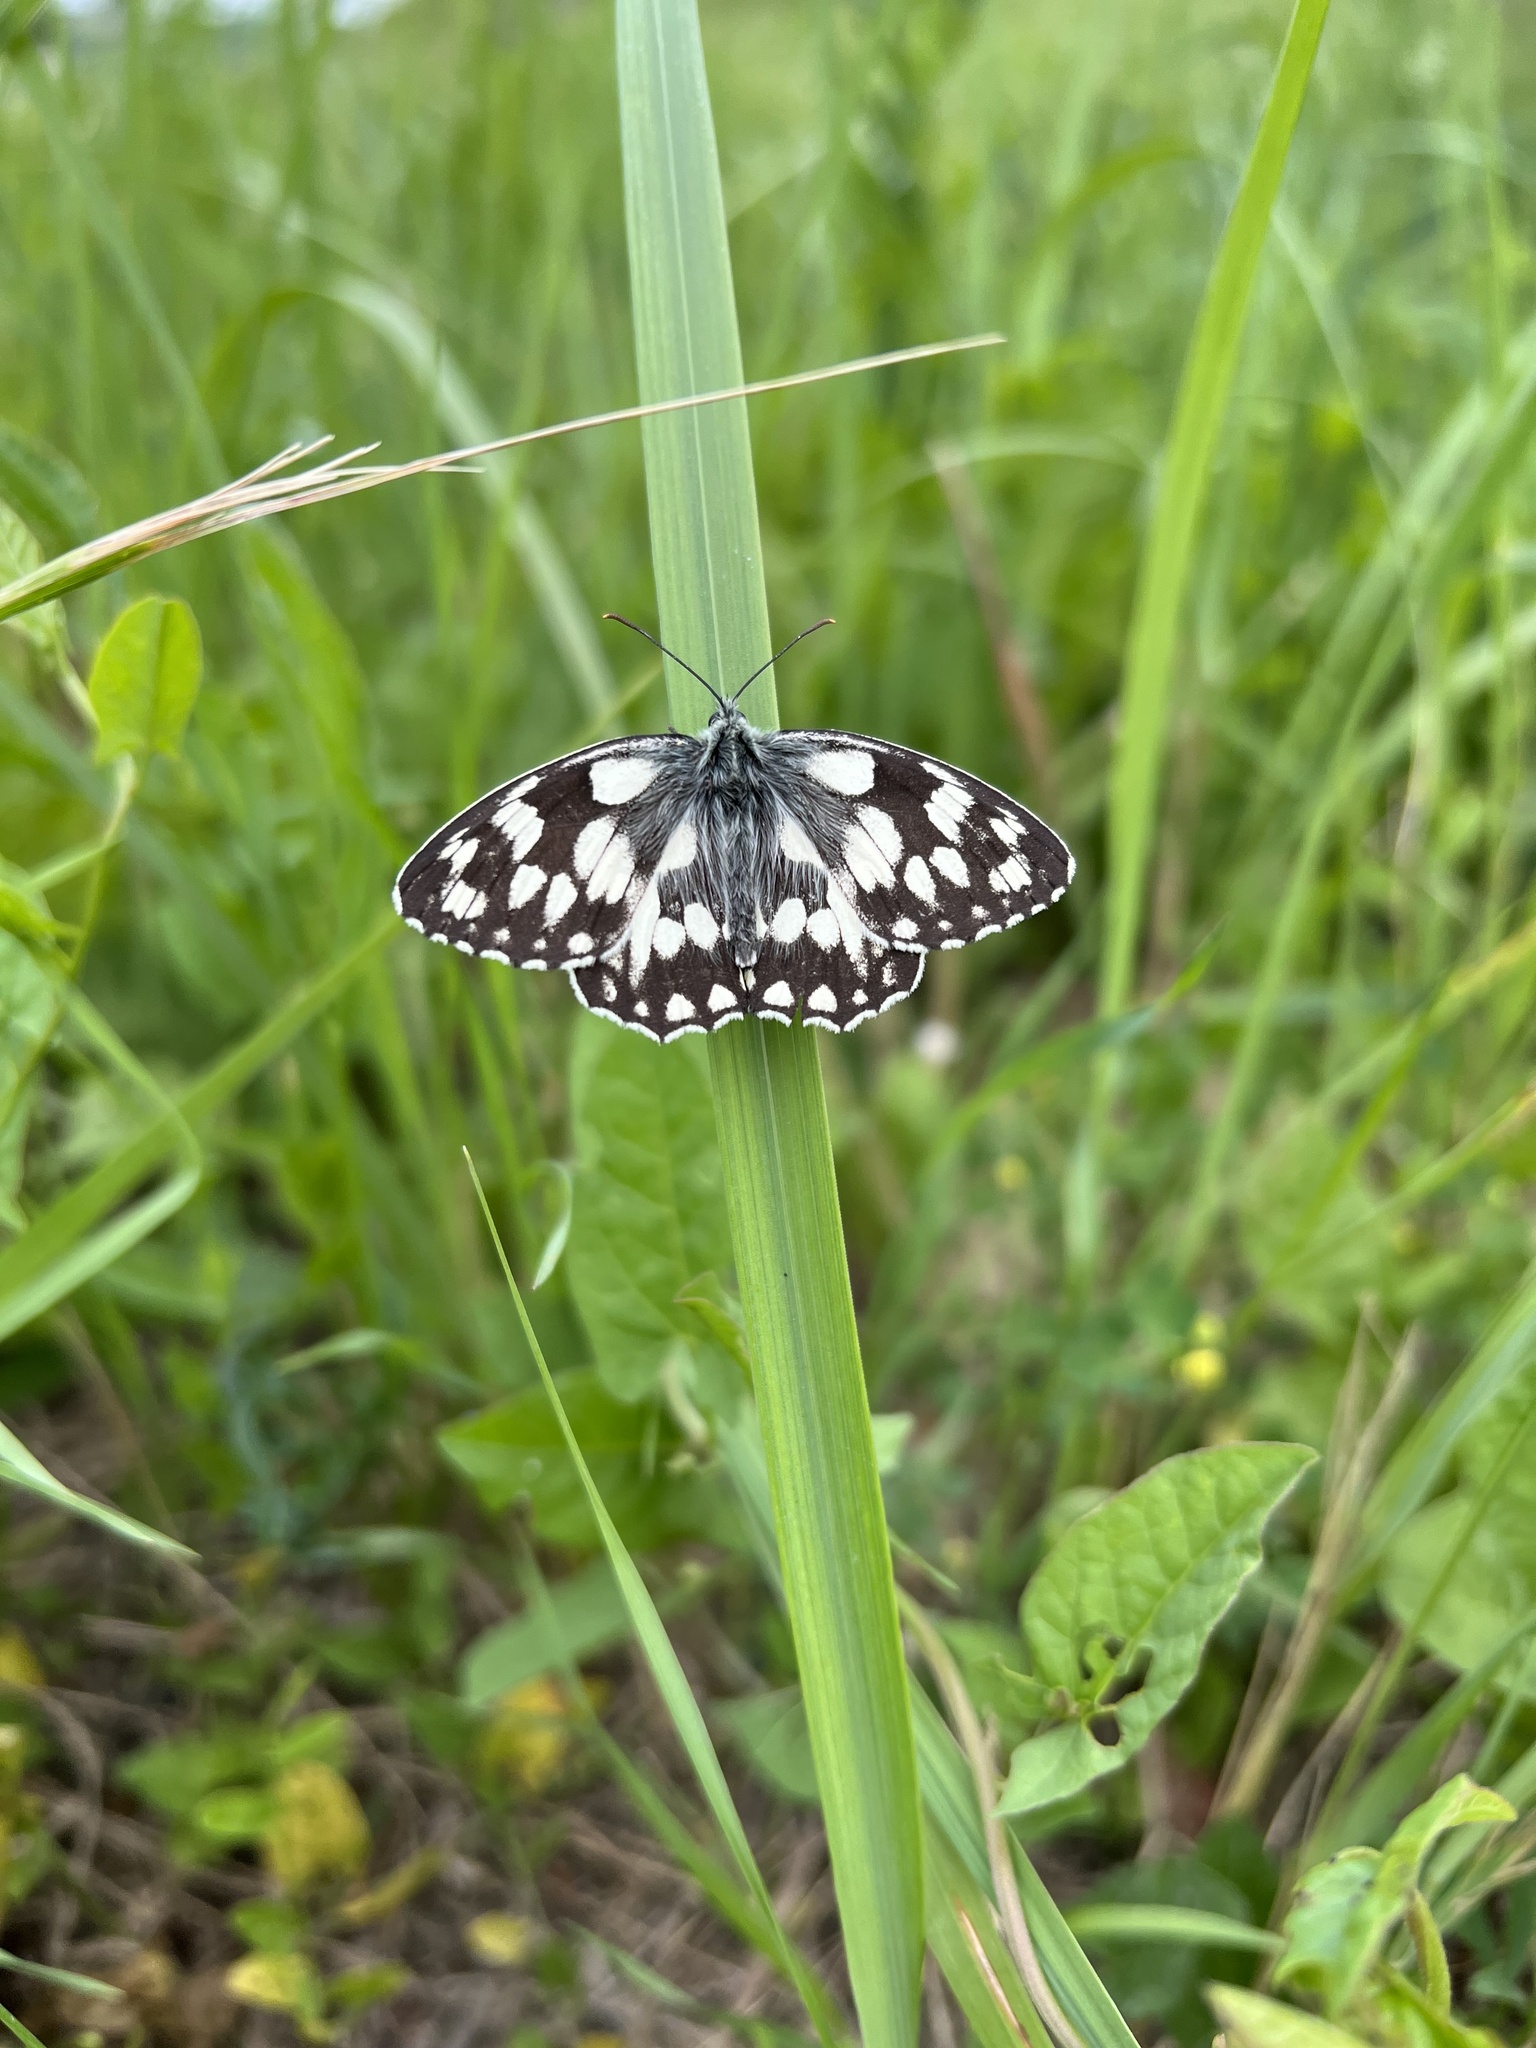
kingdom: Animalia
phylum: Arthropoda
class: Insecta
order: Lepidoptera
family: Nymphalidae
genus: Melanargia
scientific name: Melanargia galathea
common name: Marbled white
